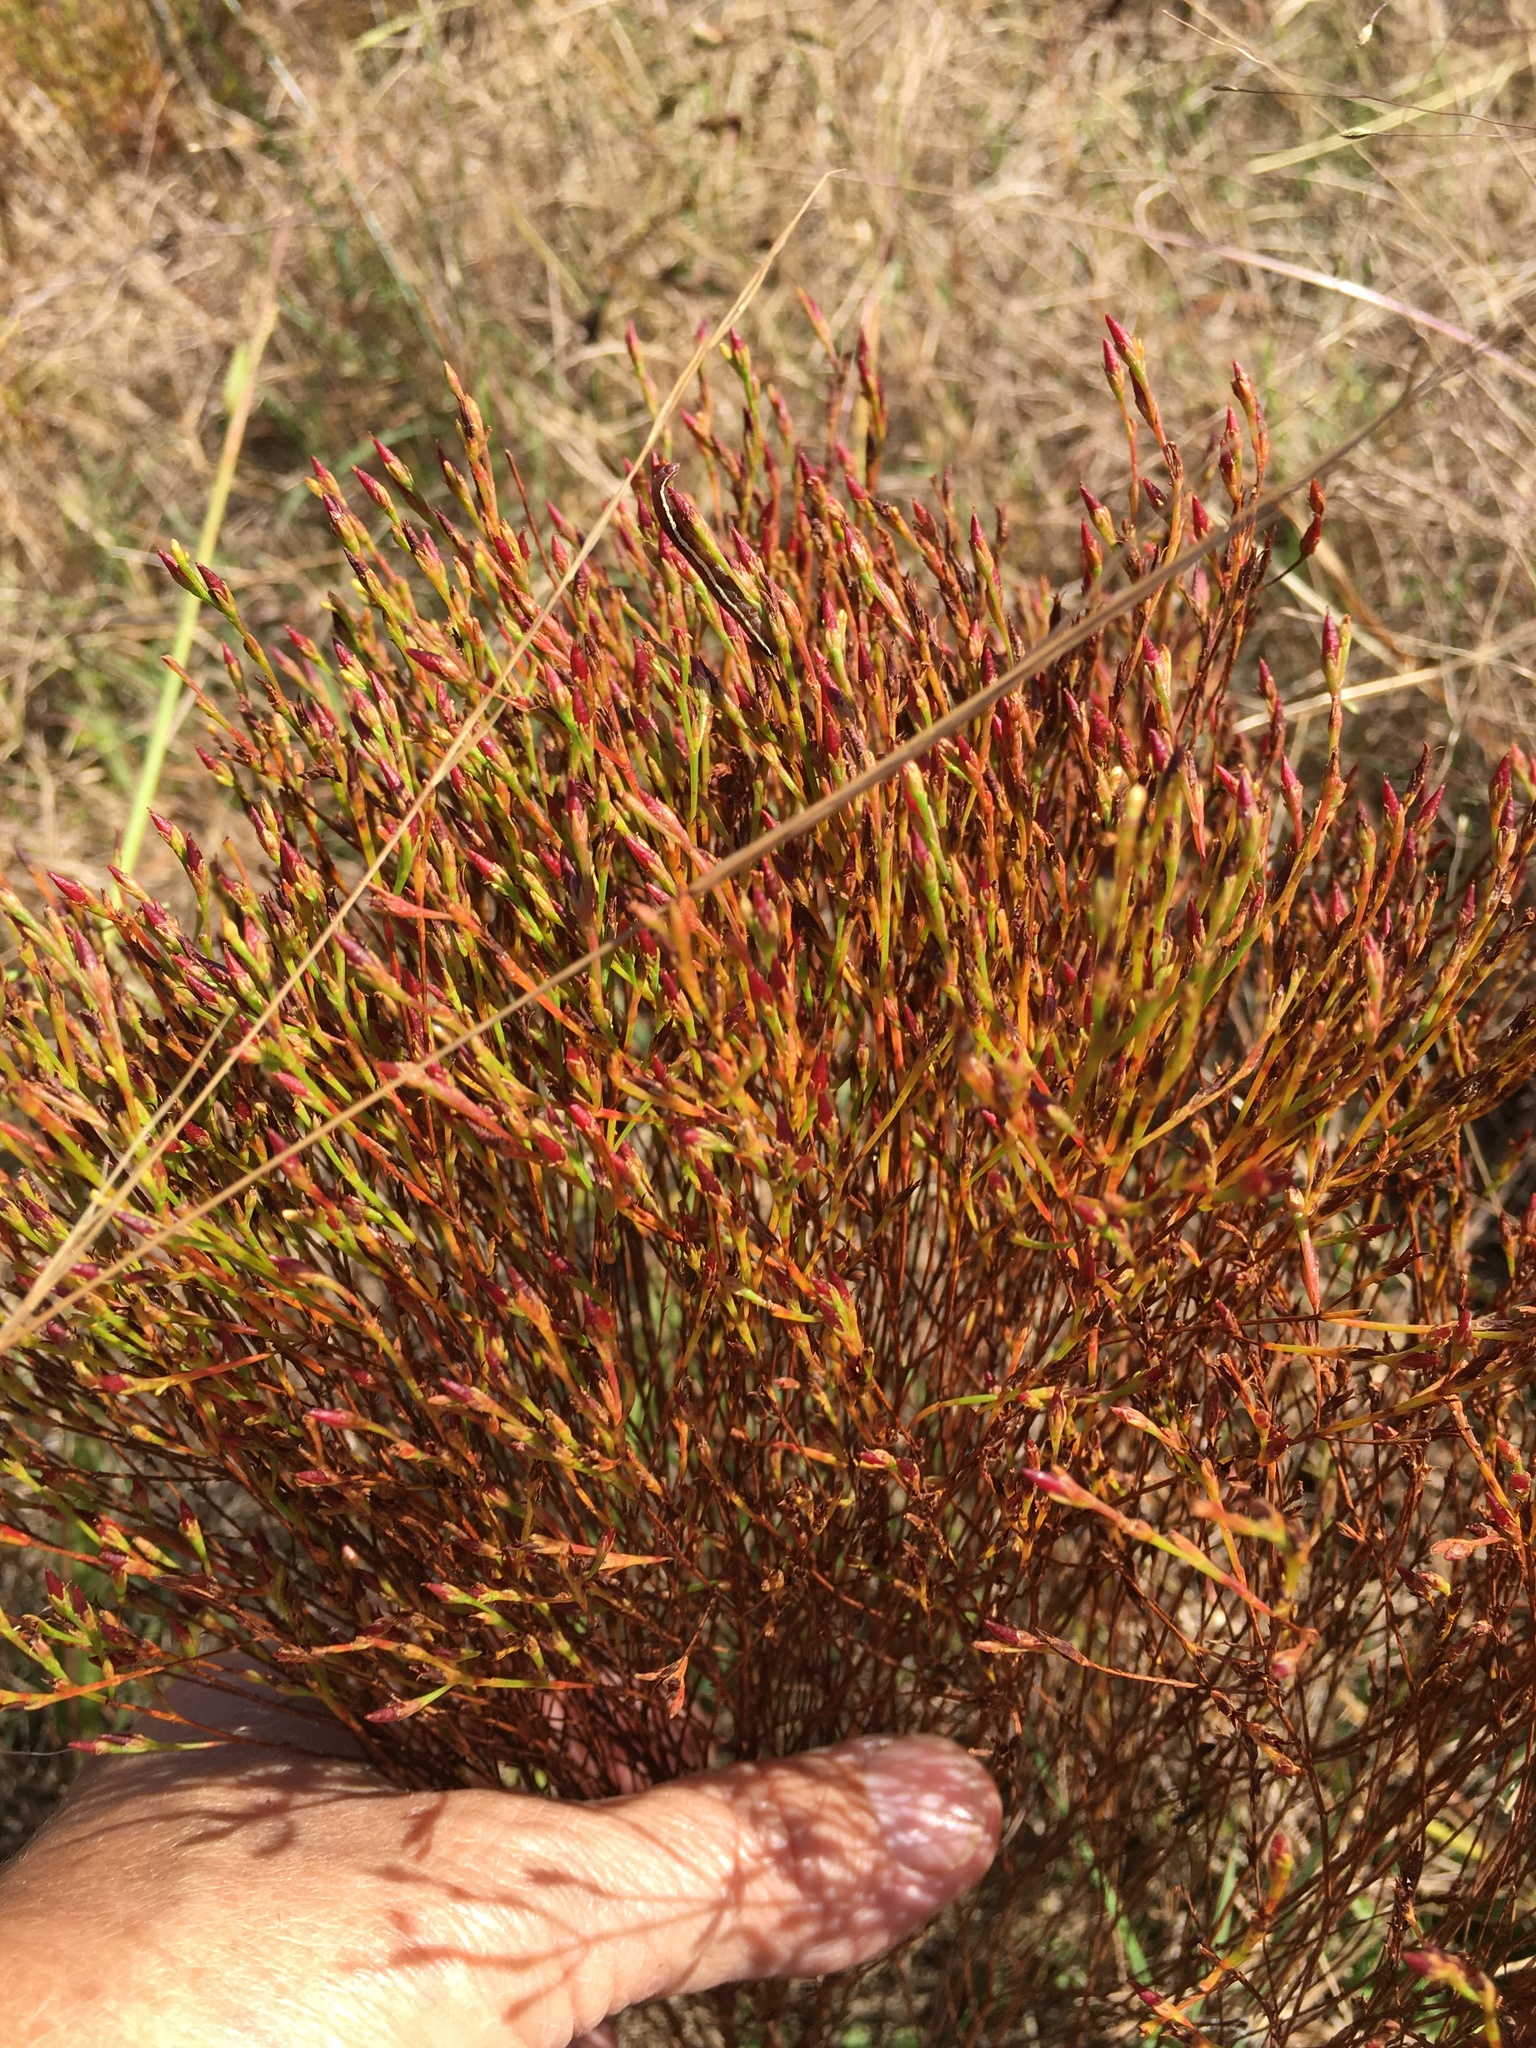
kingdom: Plantae
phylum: Tracheophyta
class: Magnoliopsida
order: Malpighiales
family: Hypericaceae
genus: Hypericum
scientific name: Hypericum gentianoides
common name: Gentian-leaved st. john's-wort
